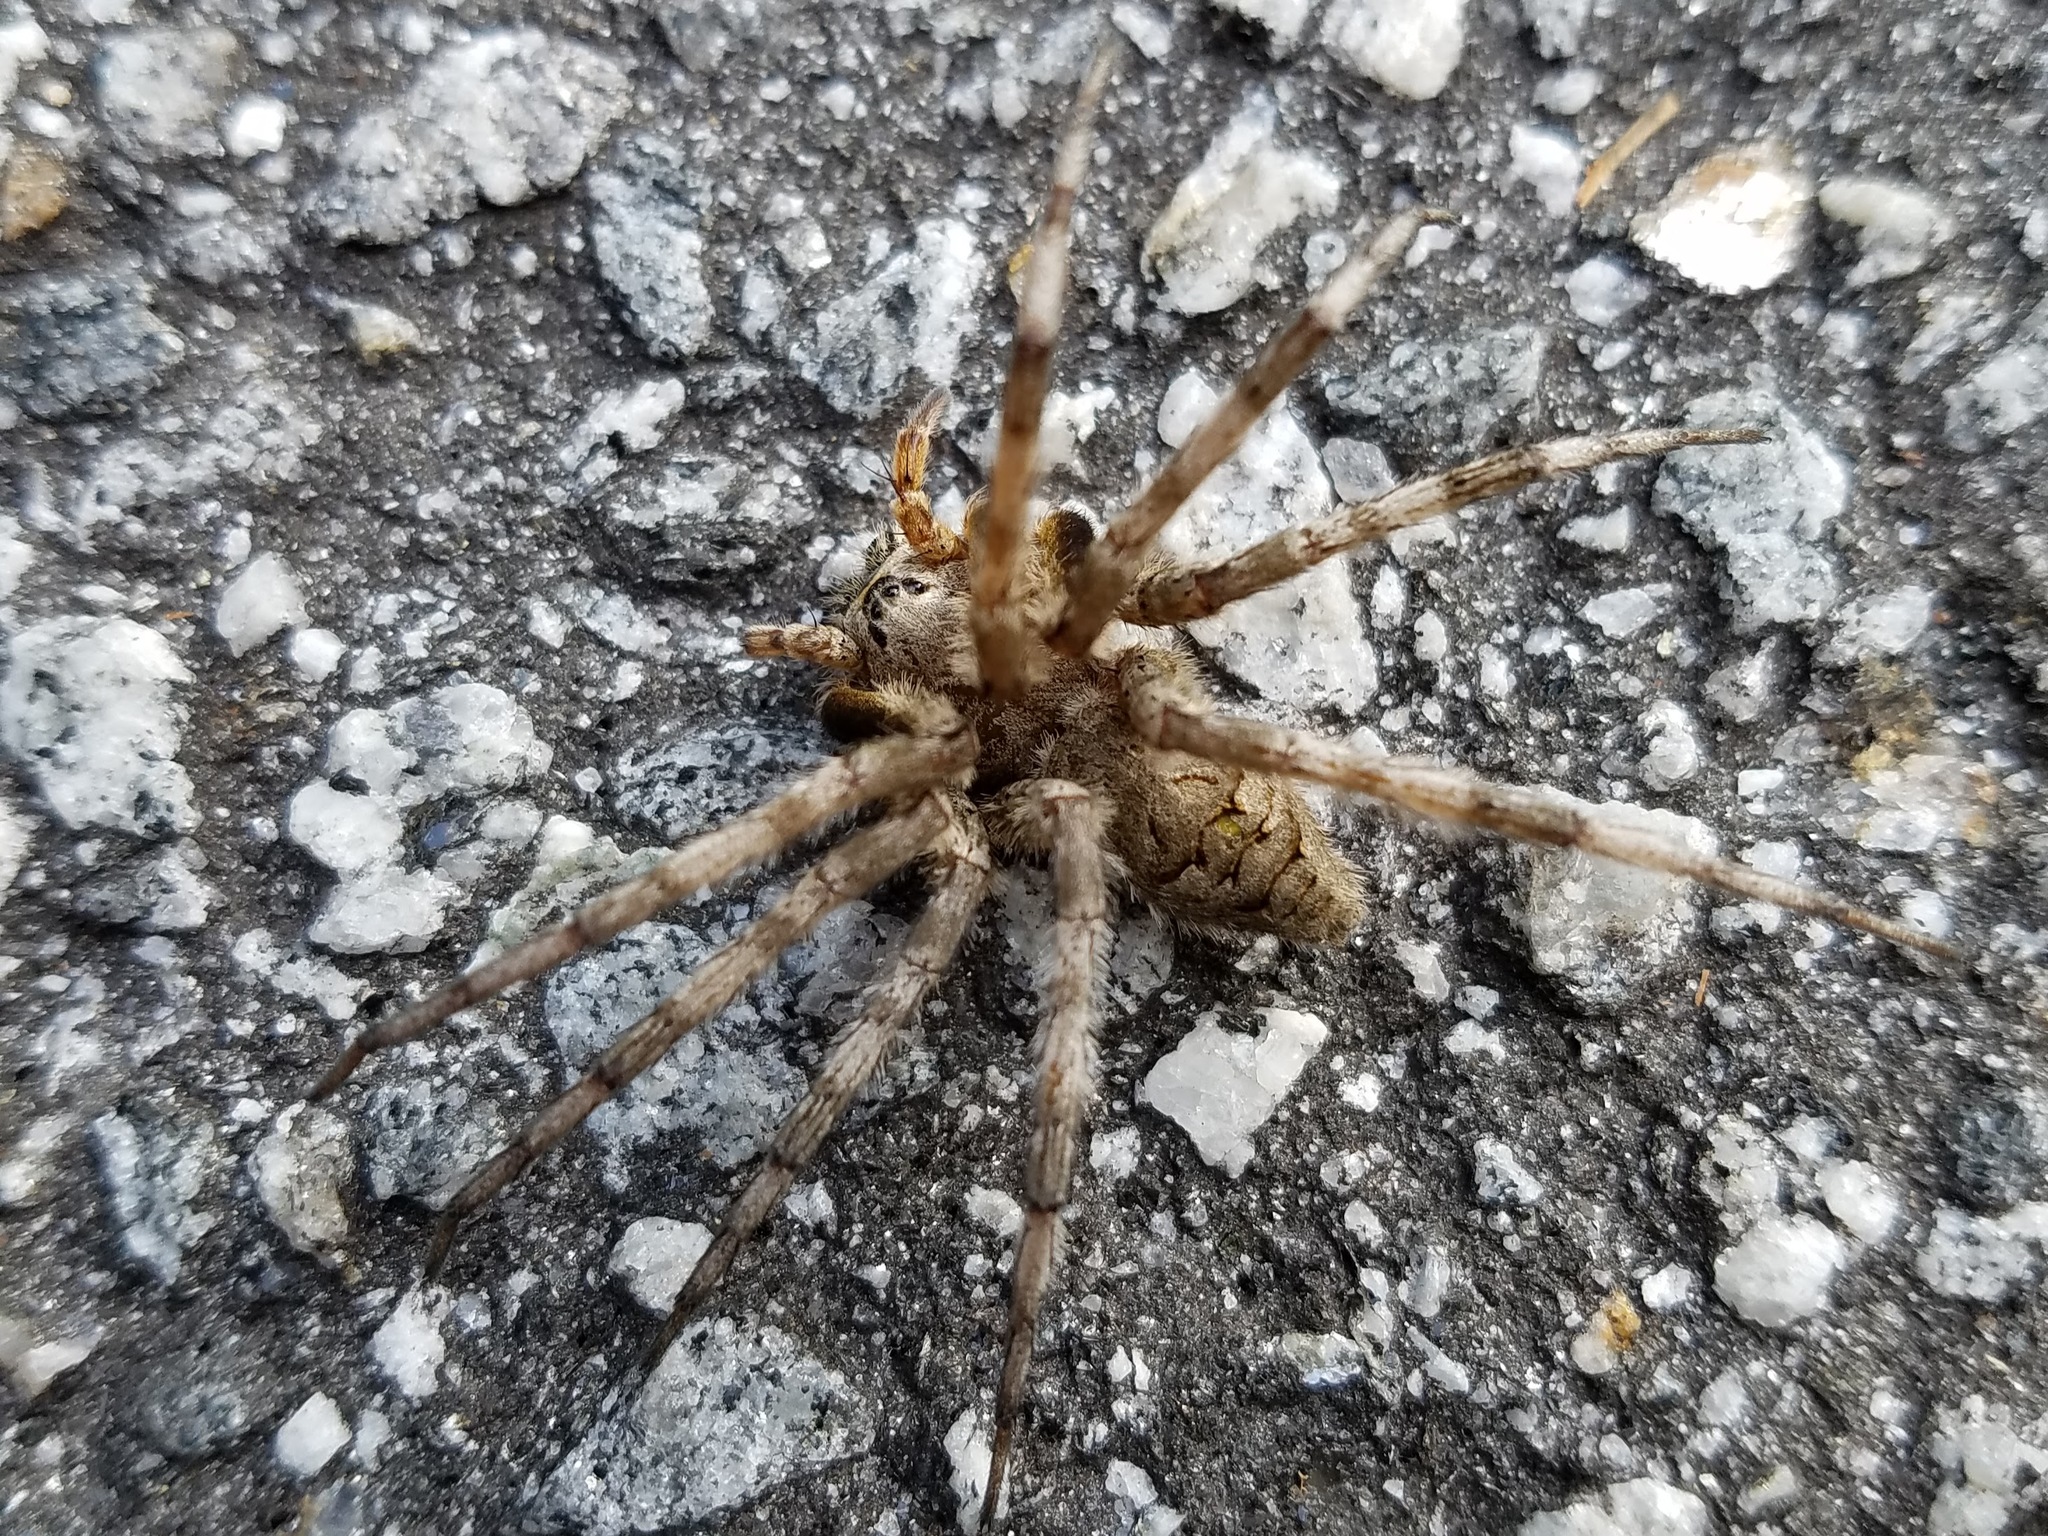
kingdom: Animalia
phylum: Arthropoda
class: Arachnida
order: Araneae
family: Pisauridae
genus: Dolomedes
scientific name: Dolomedes albineus
